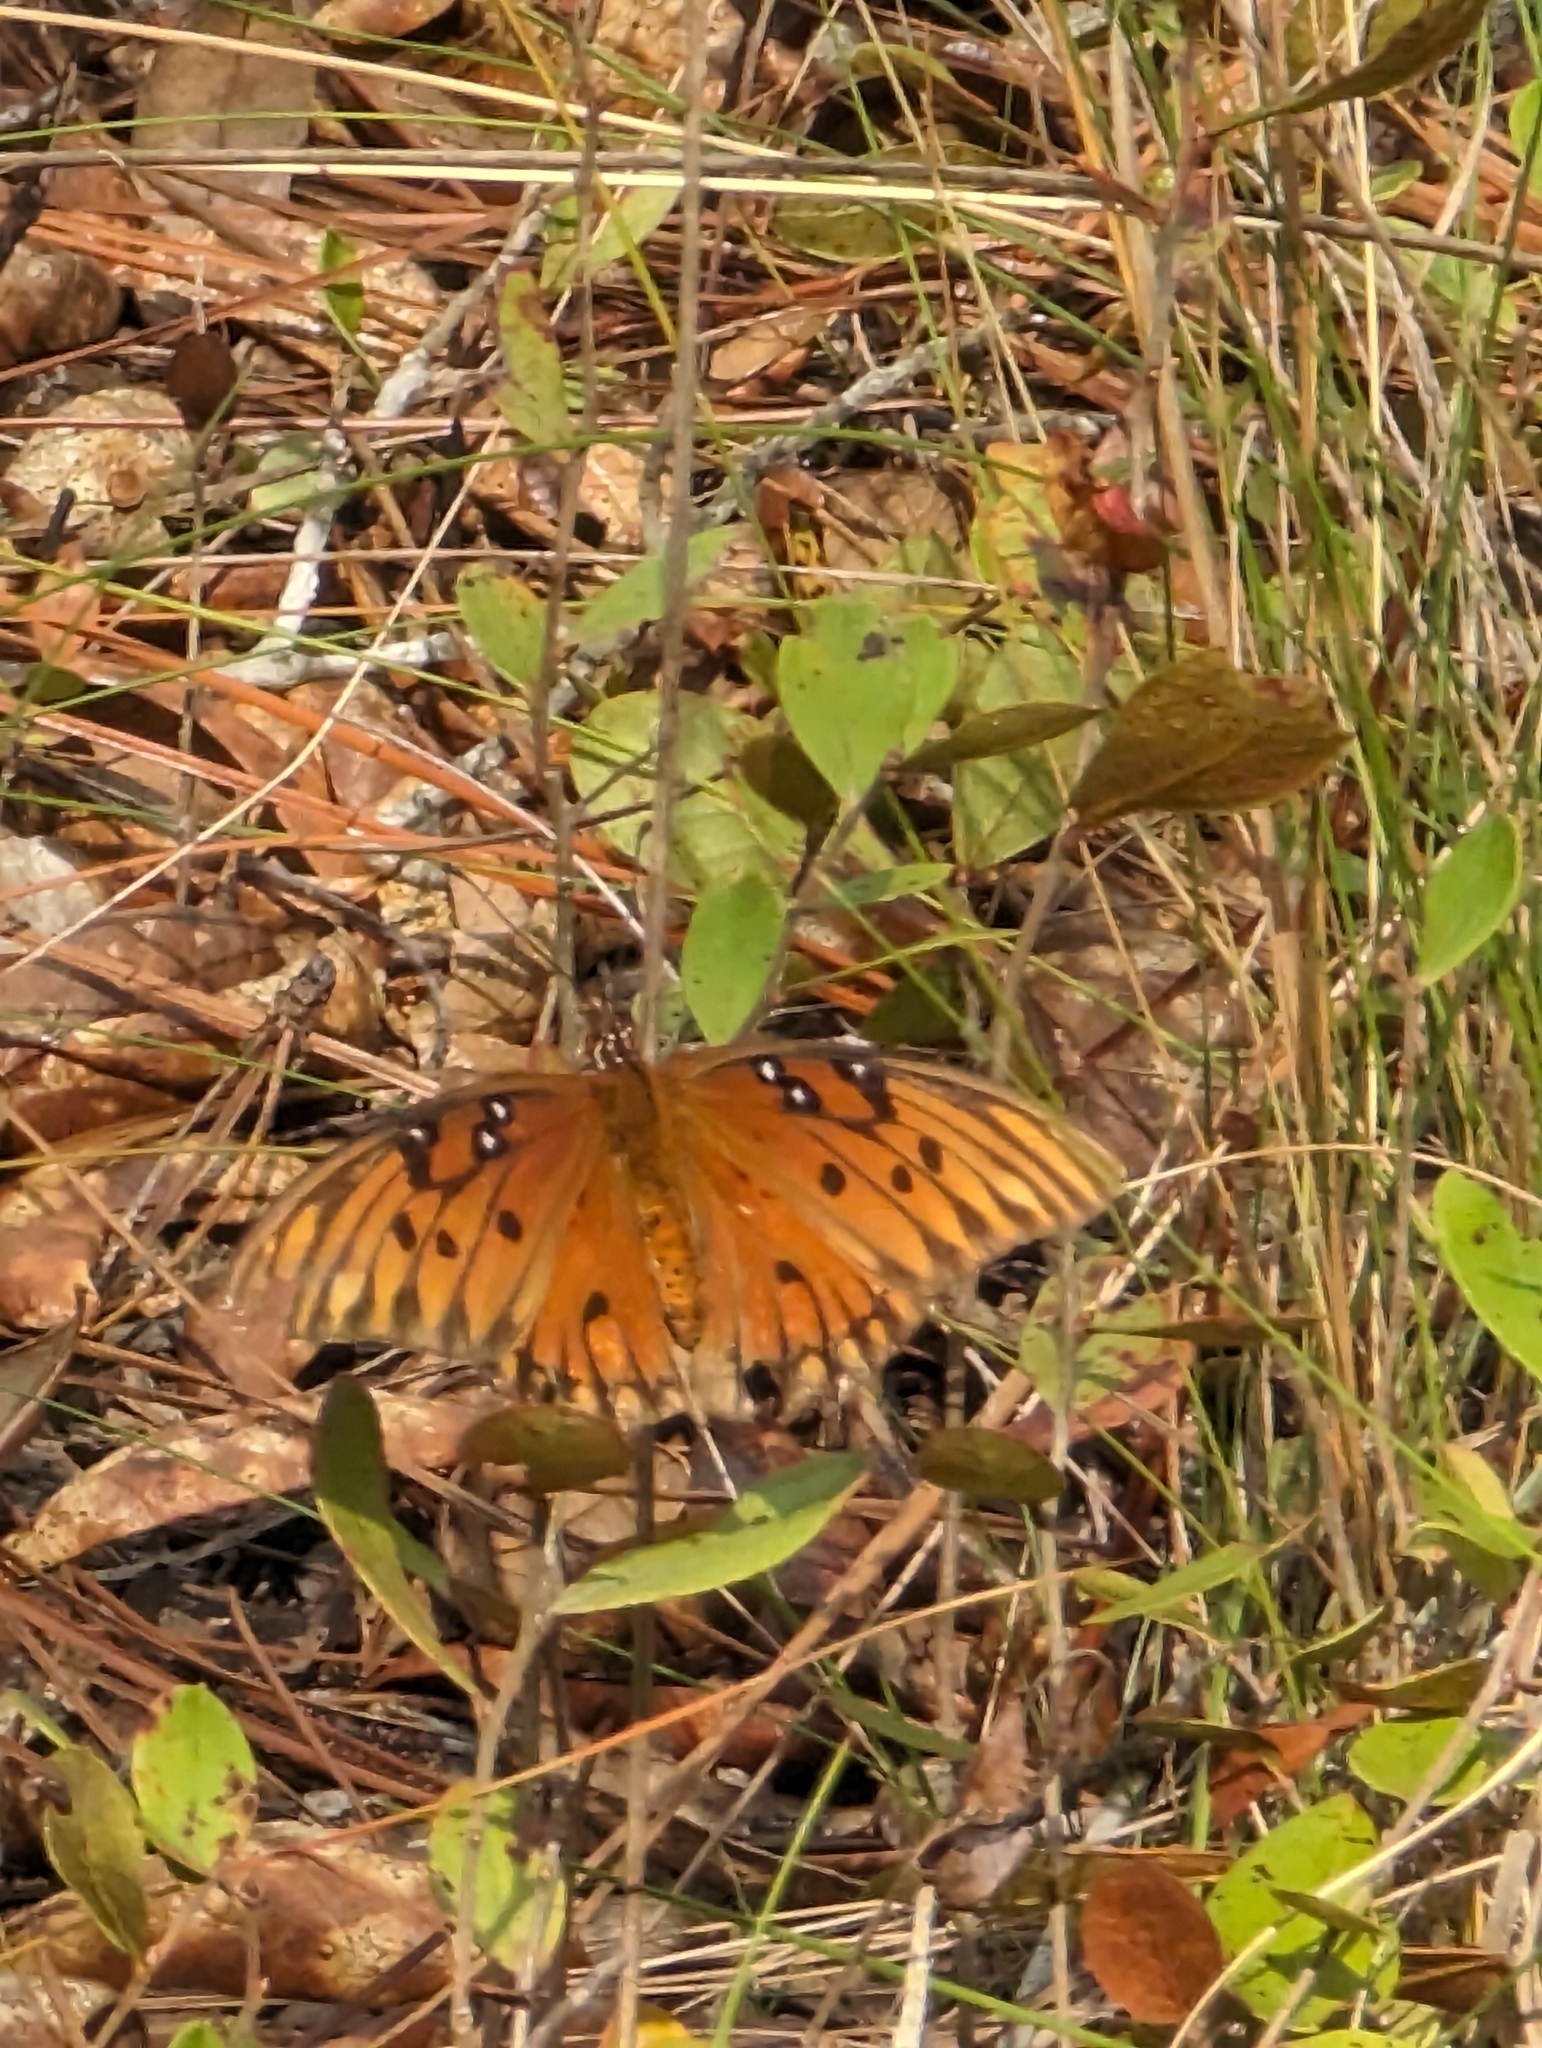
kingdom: Animalia
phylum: Arthropoda
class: Insecta
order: Lepidoptera
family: Nymphalidae
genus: Dione
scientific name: Dione vanillae
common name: Gulf fritillary
